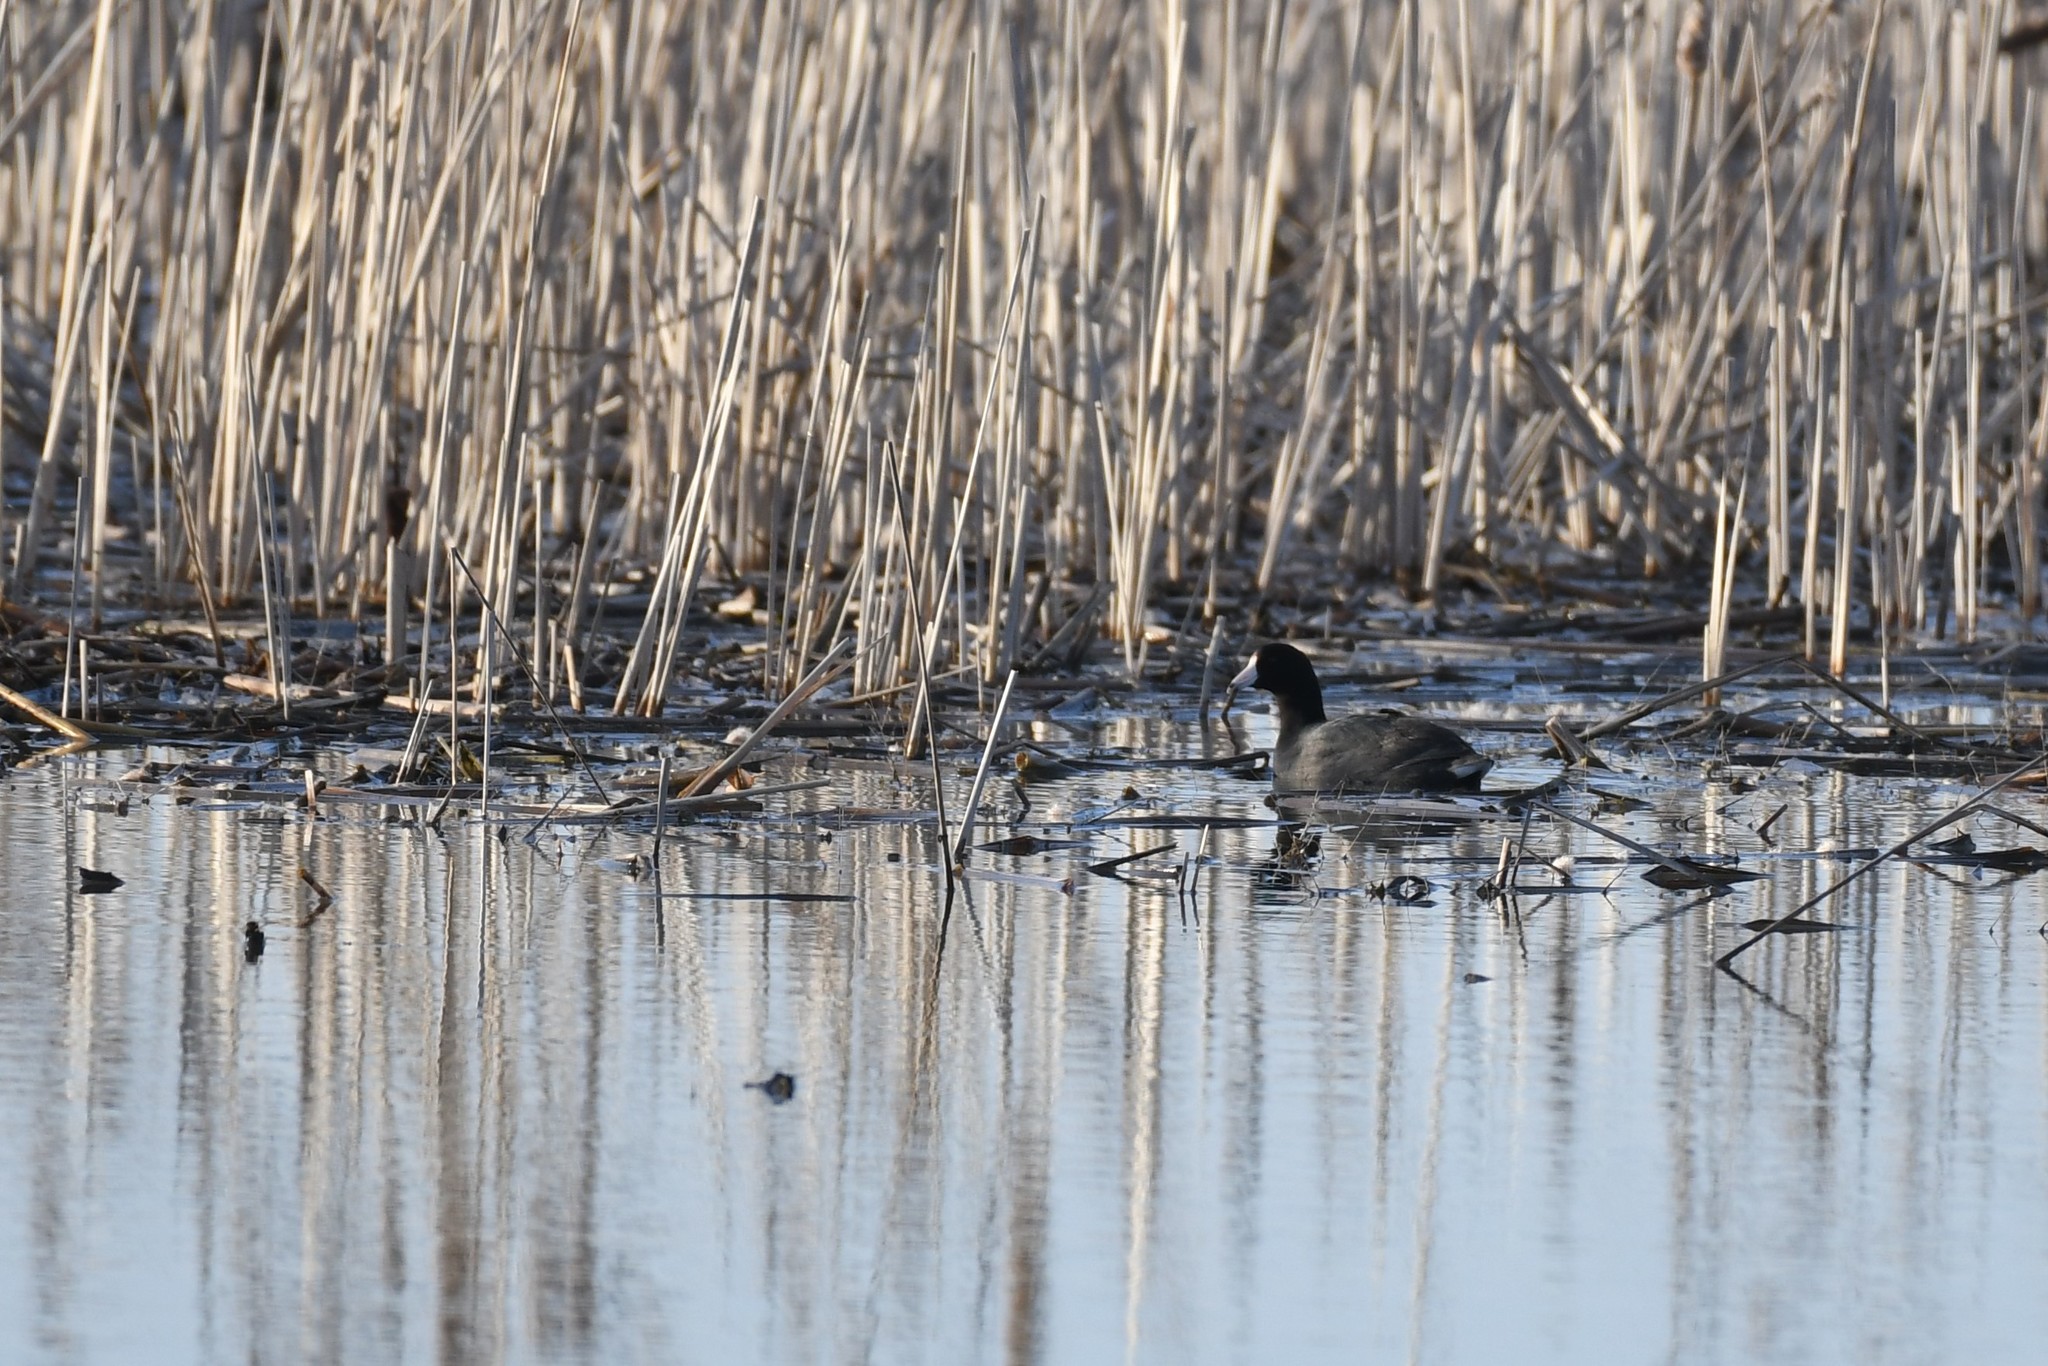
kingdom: Animalia
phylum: Chordata
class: Aves
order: Gruiformes
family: Rallidae
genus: Fulica
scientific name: Fulica americana
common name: American coot
